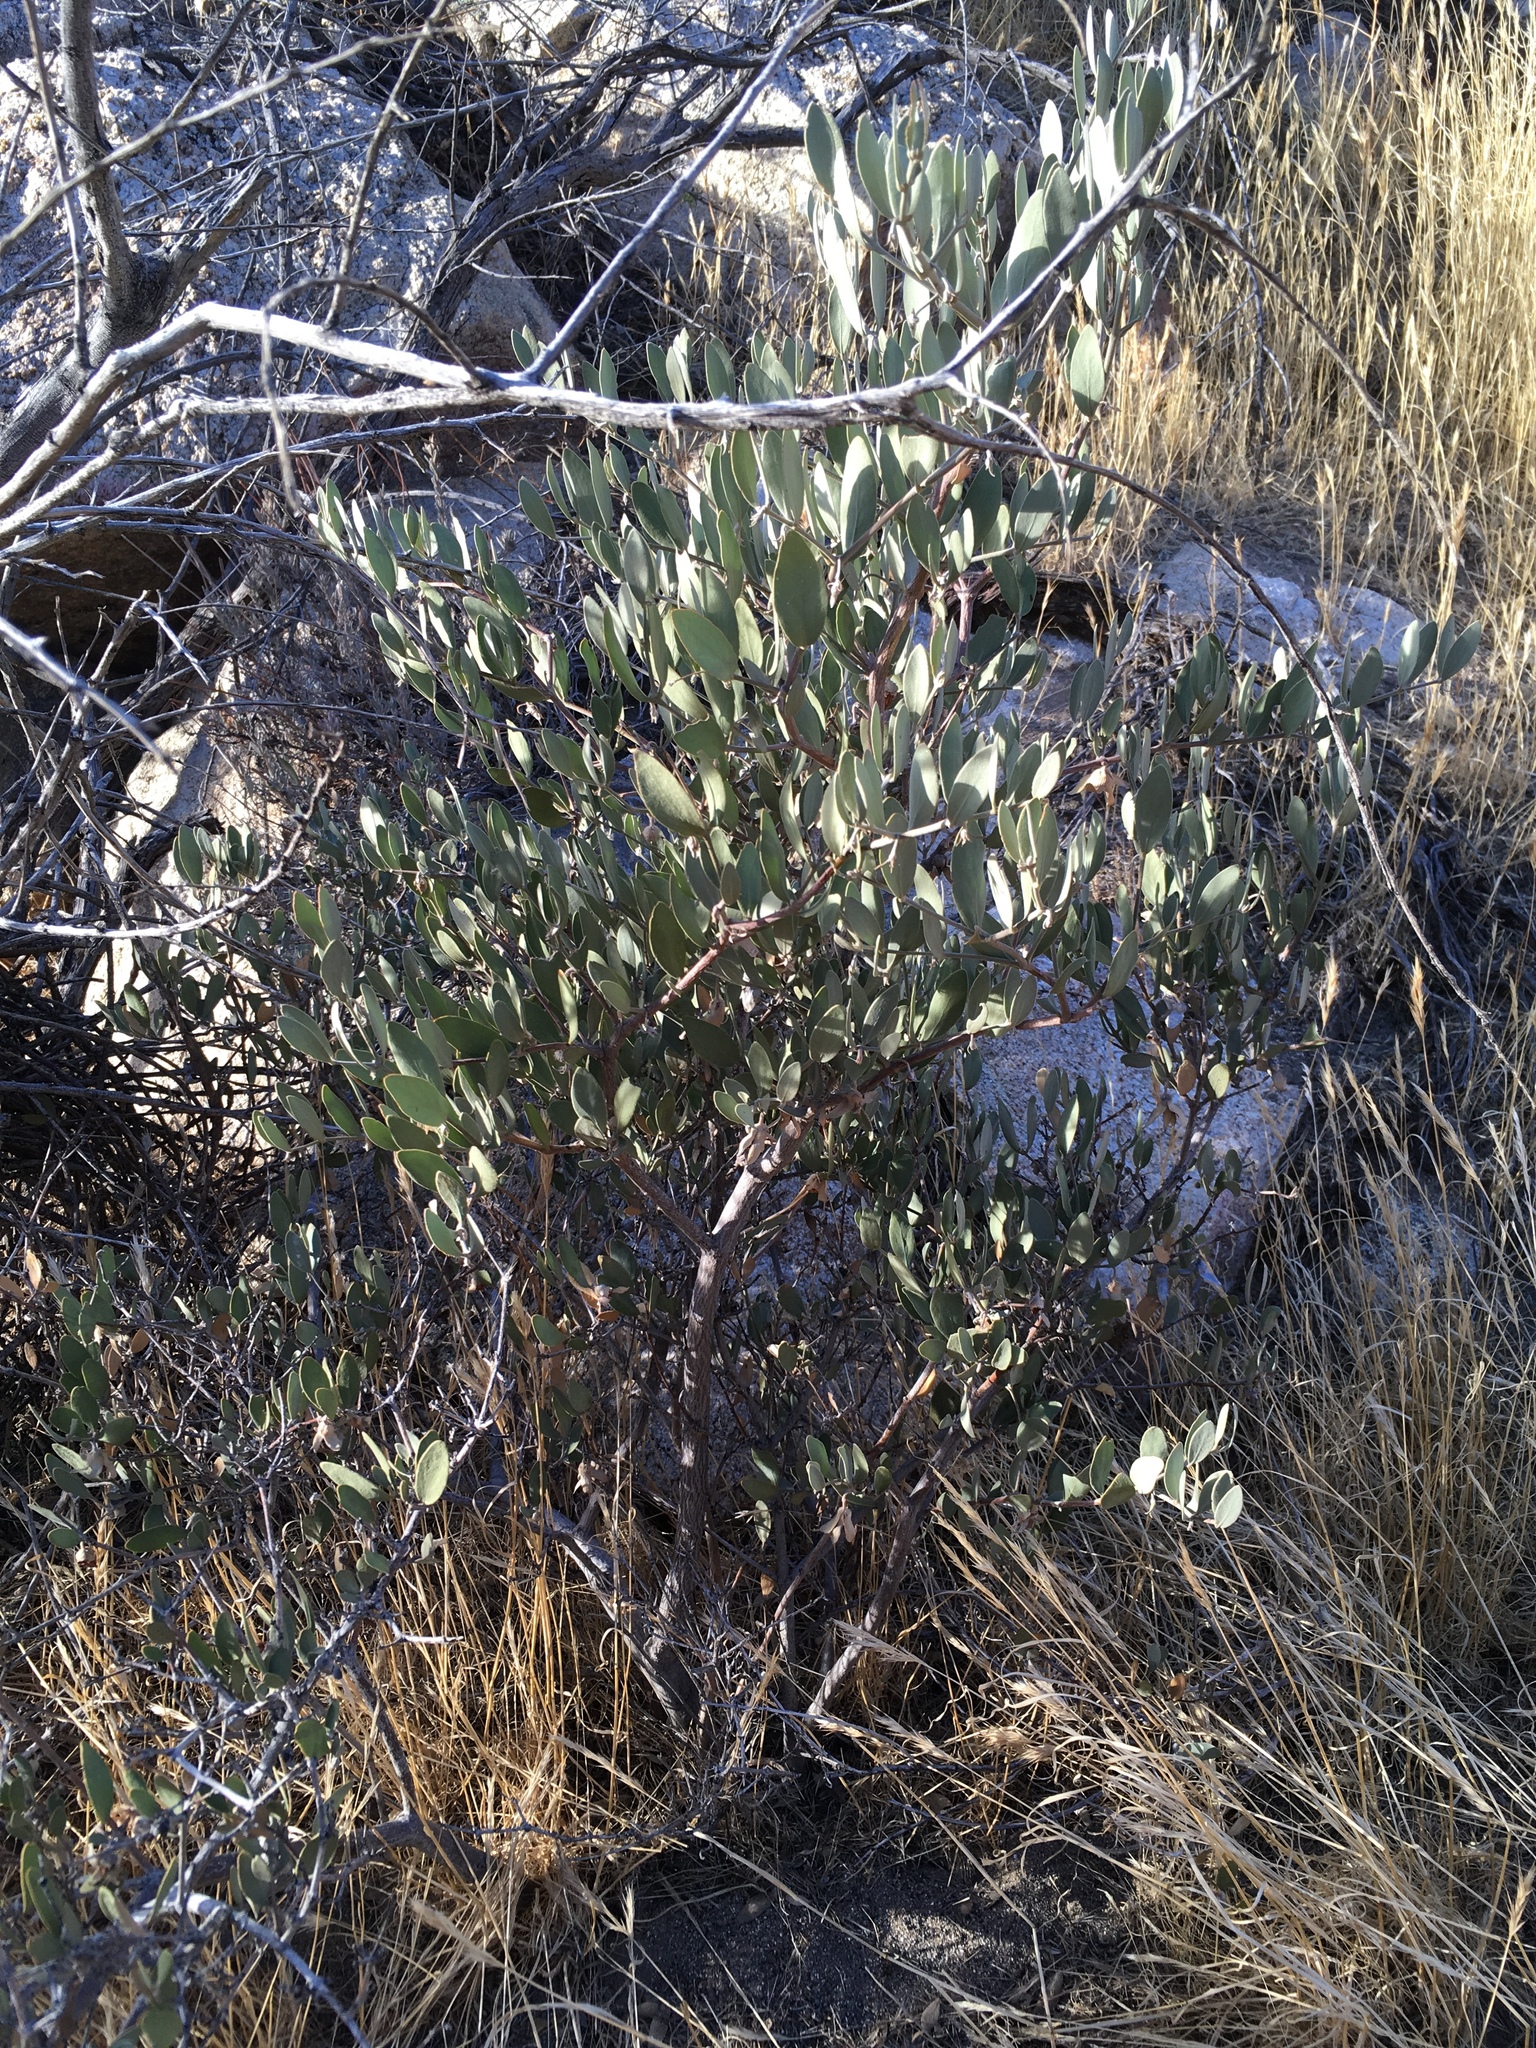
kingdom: Plantae
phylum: Tracheophyta
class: Magnoliopsida
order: Caryophyllales
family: Simmondsiaceae
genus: Simmondsia
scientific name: Simmondsia chinensis
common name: Jojoba
